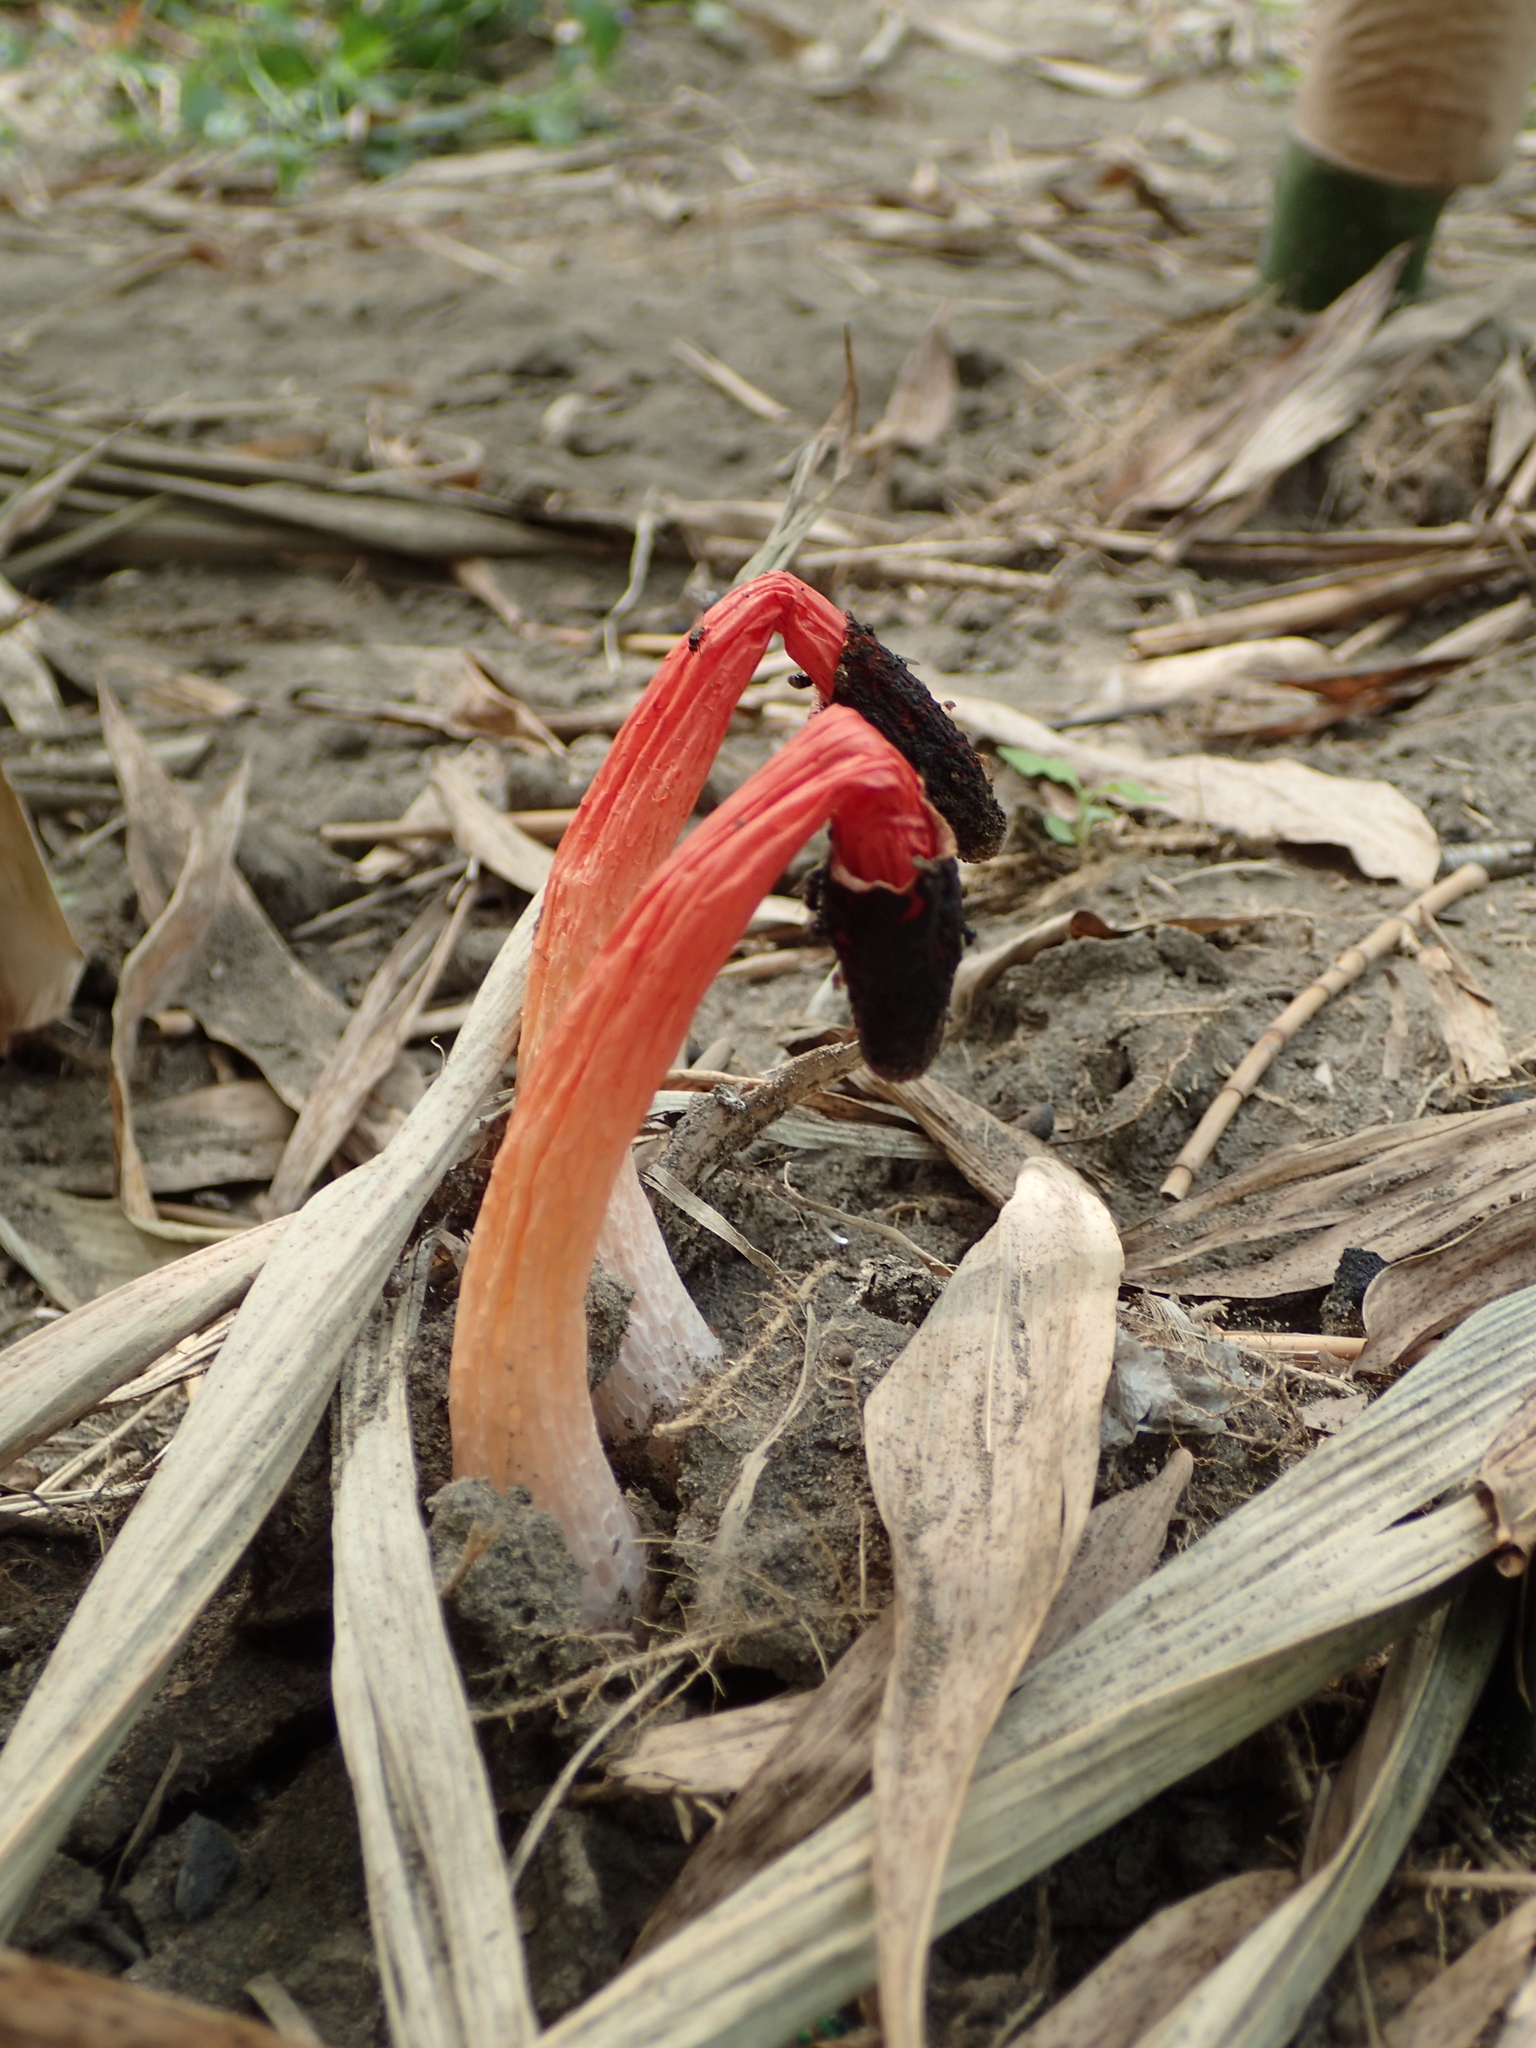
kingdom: Fungi
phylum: Basidiomycota
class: Agaricomycetes
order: Phallales
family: Phallaceae
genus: Phallus
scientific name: Phallus rugulosus
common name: Wrinkly stinkhorn
